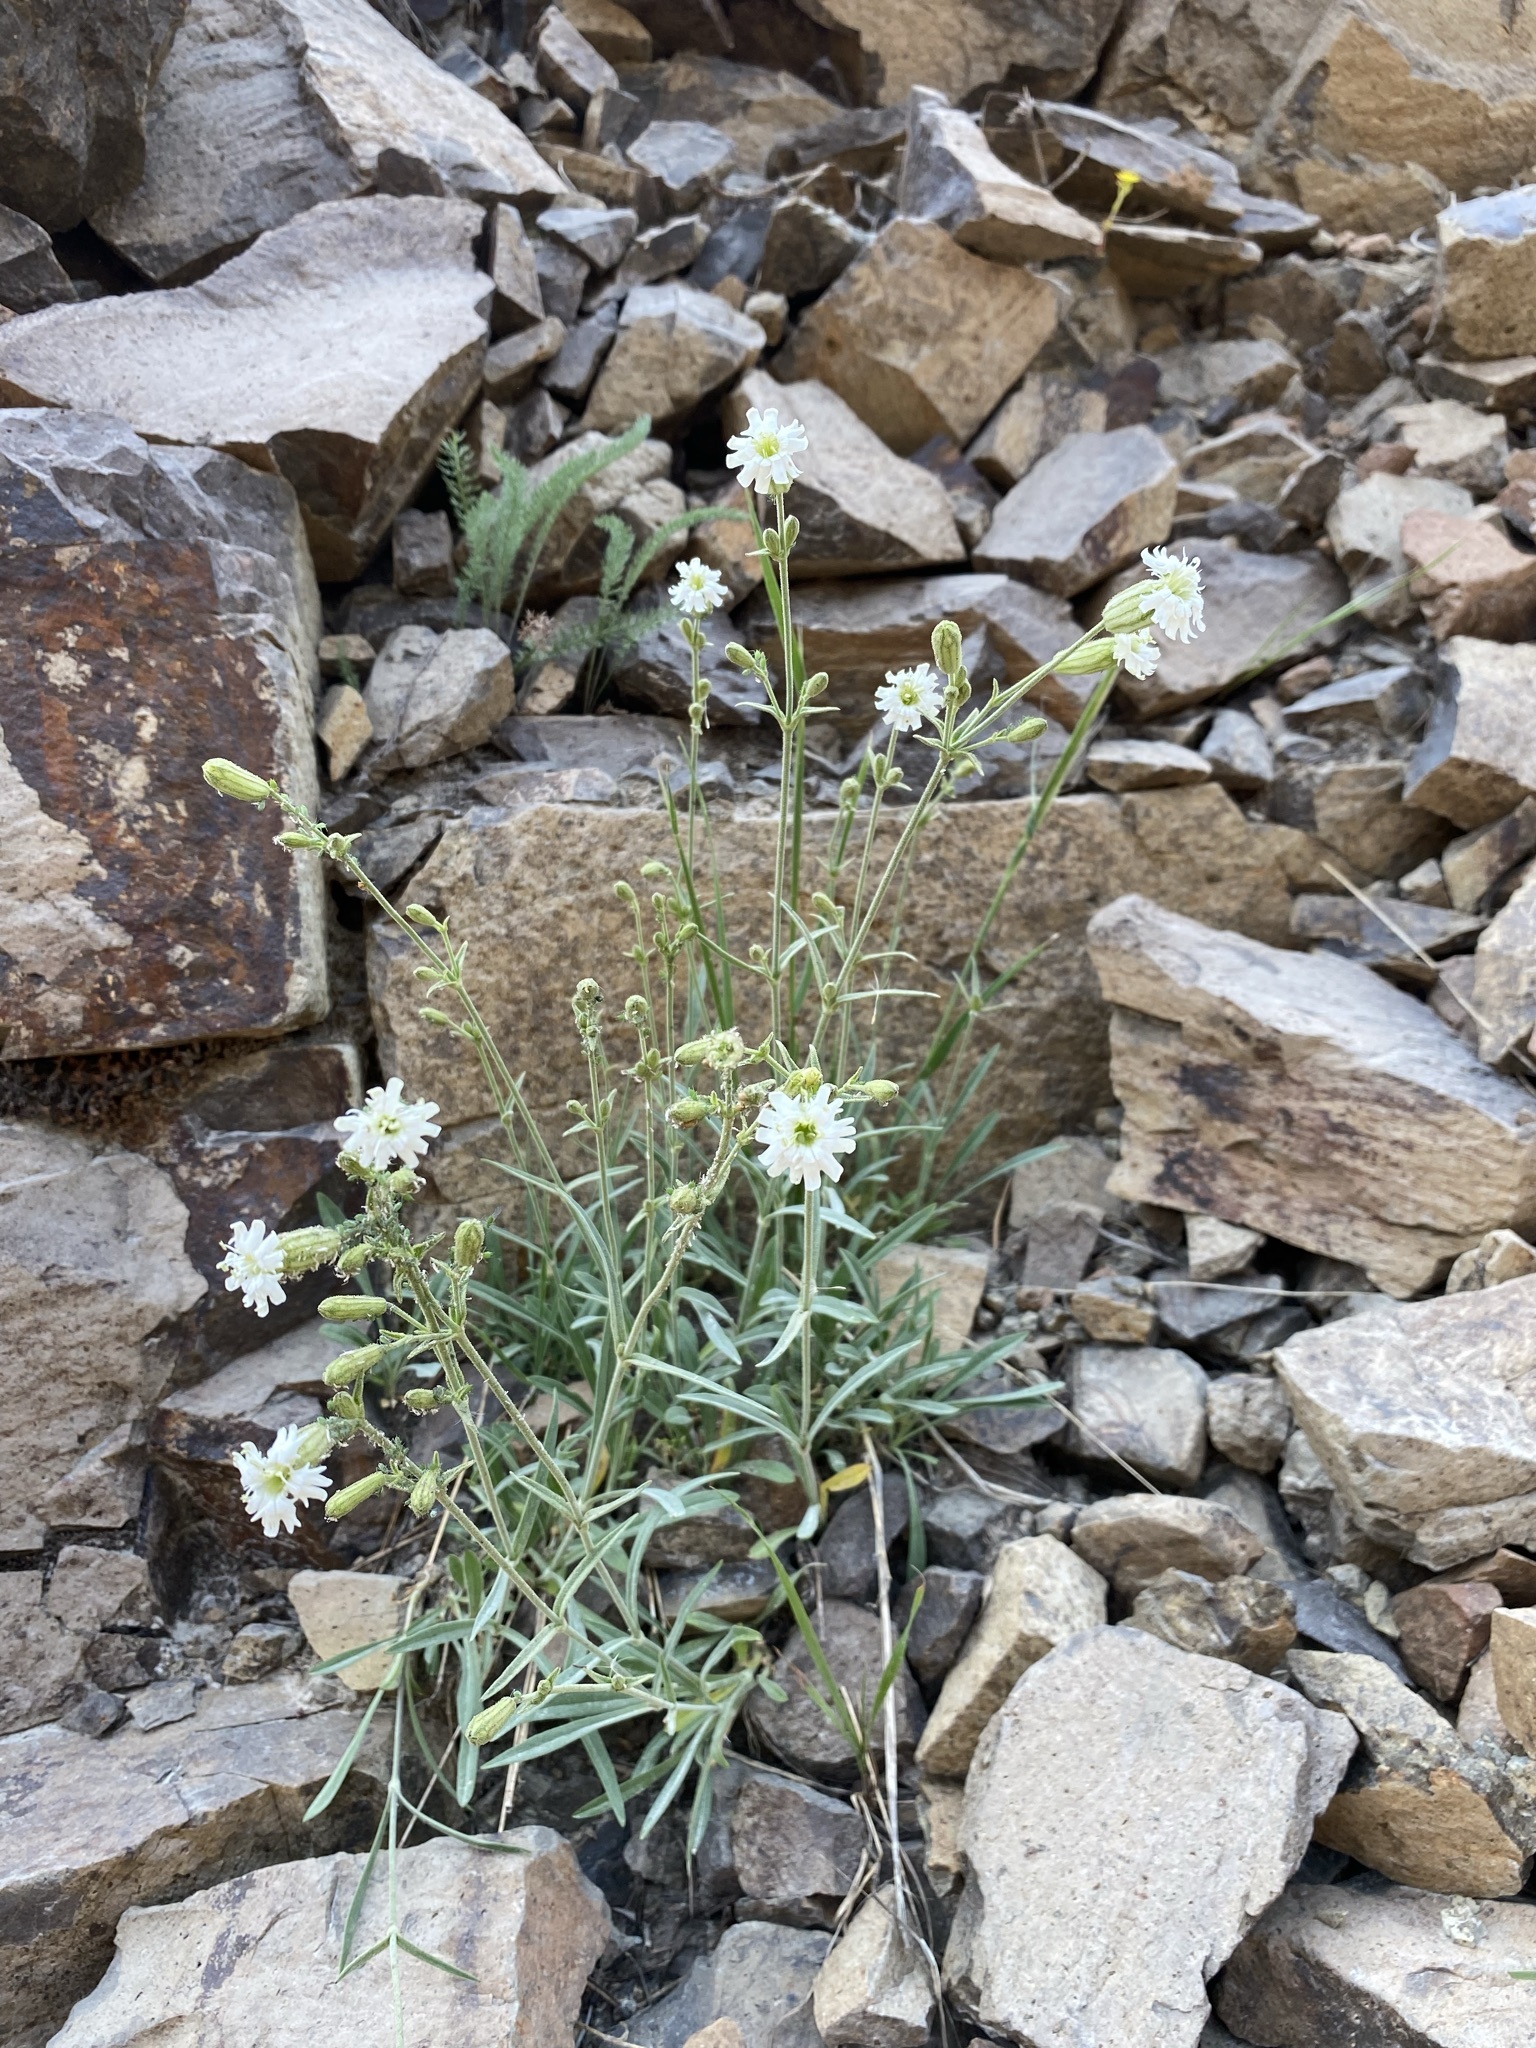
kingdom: Plantae
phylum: Tracheophyta
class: Magnoliopsida
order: Caryophyllales
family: Caryophyllaceae
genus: Silene
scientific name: Silene parryi
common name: Parry's campion
